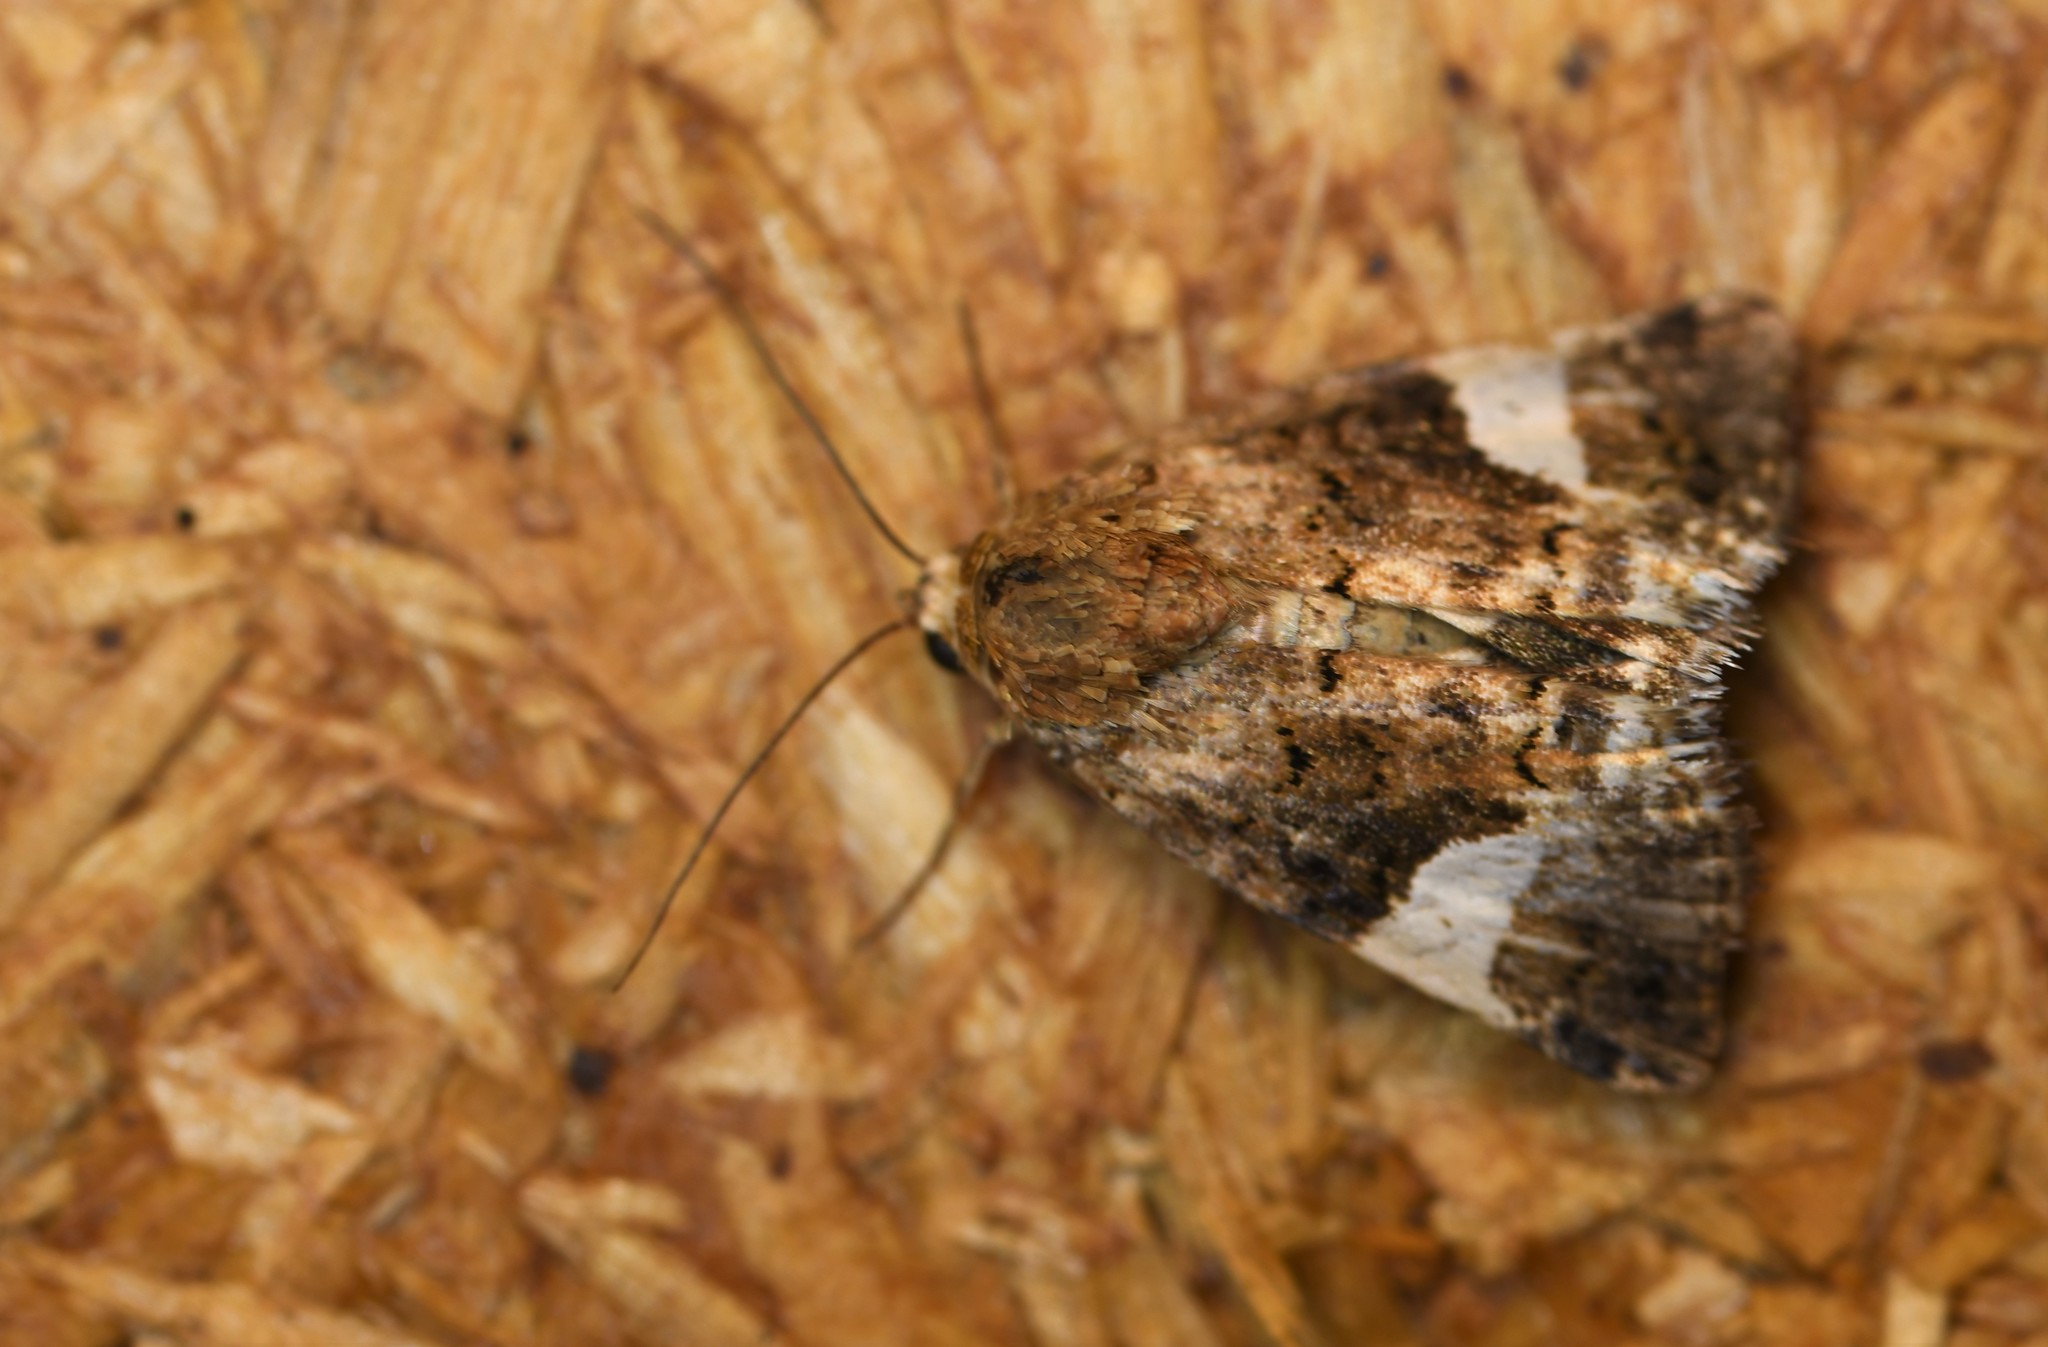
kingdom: Animalia
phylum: Arthropoda
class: Insecta
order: Lepidoptera
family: Erebidae
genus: Tyta
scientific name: Tyta luctuosa
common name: Four-spotted
